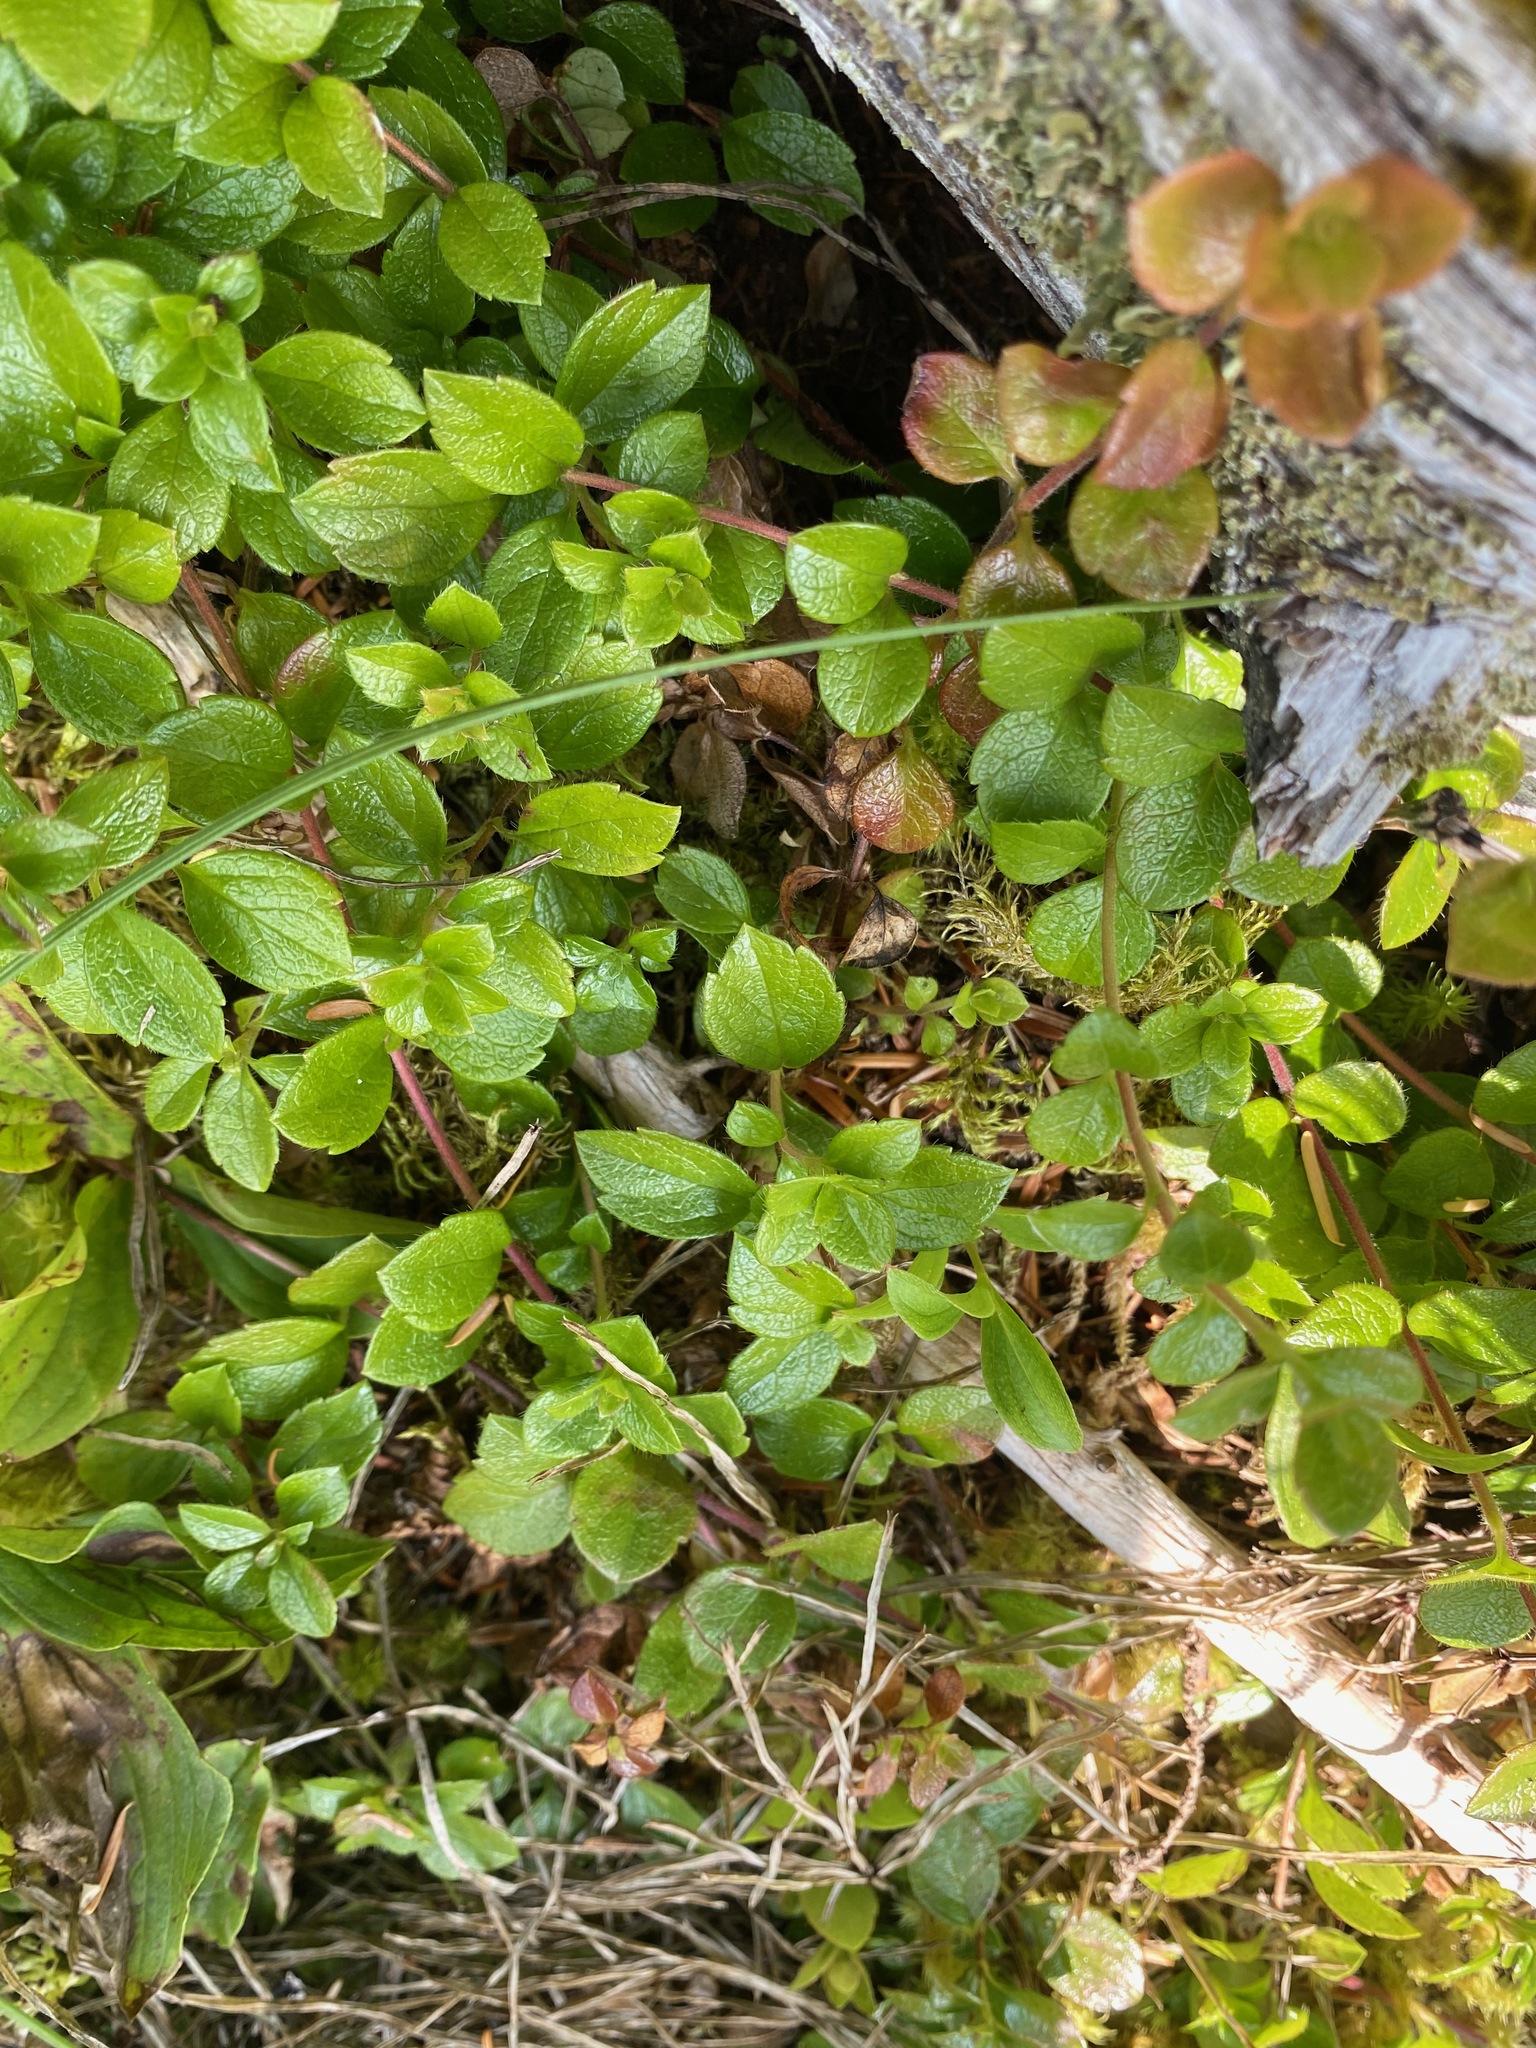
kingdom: Plantae
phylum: Tracheophyta
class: Magnoliopsida
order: Dipsacales
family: Caprifoliaceae
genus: Linnaea
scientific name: Linnaea borealis
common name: Twinflower
